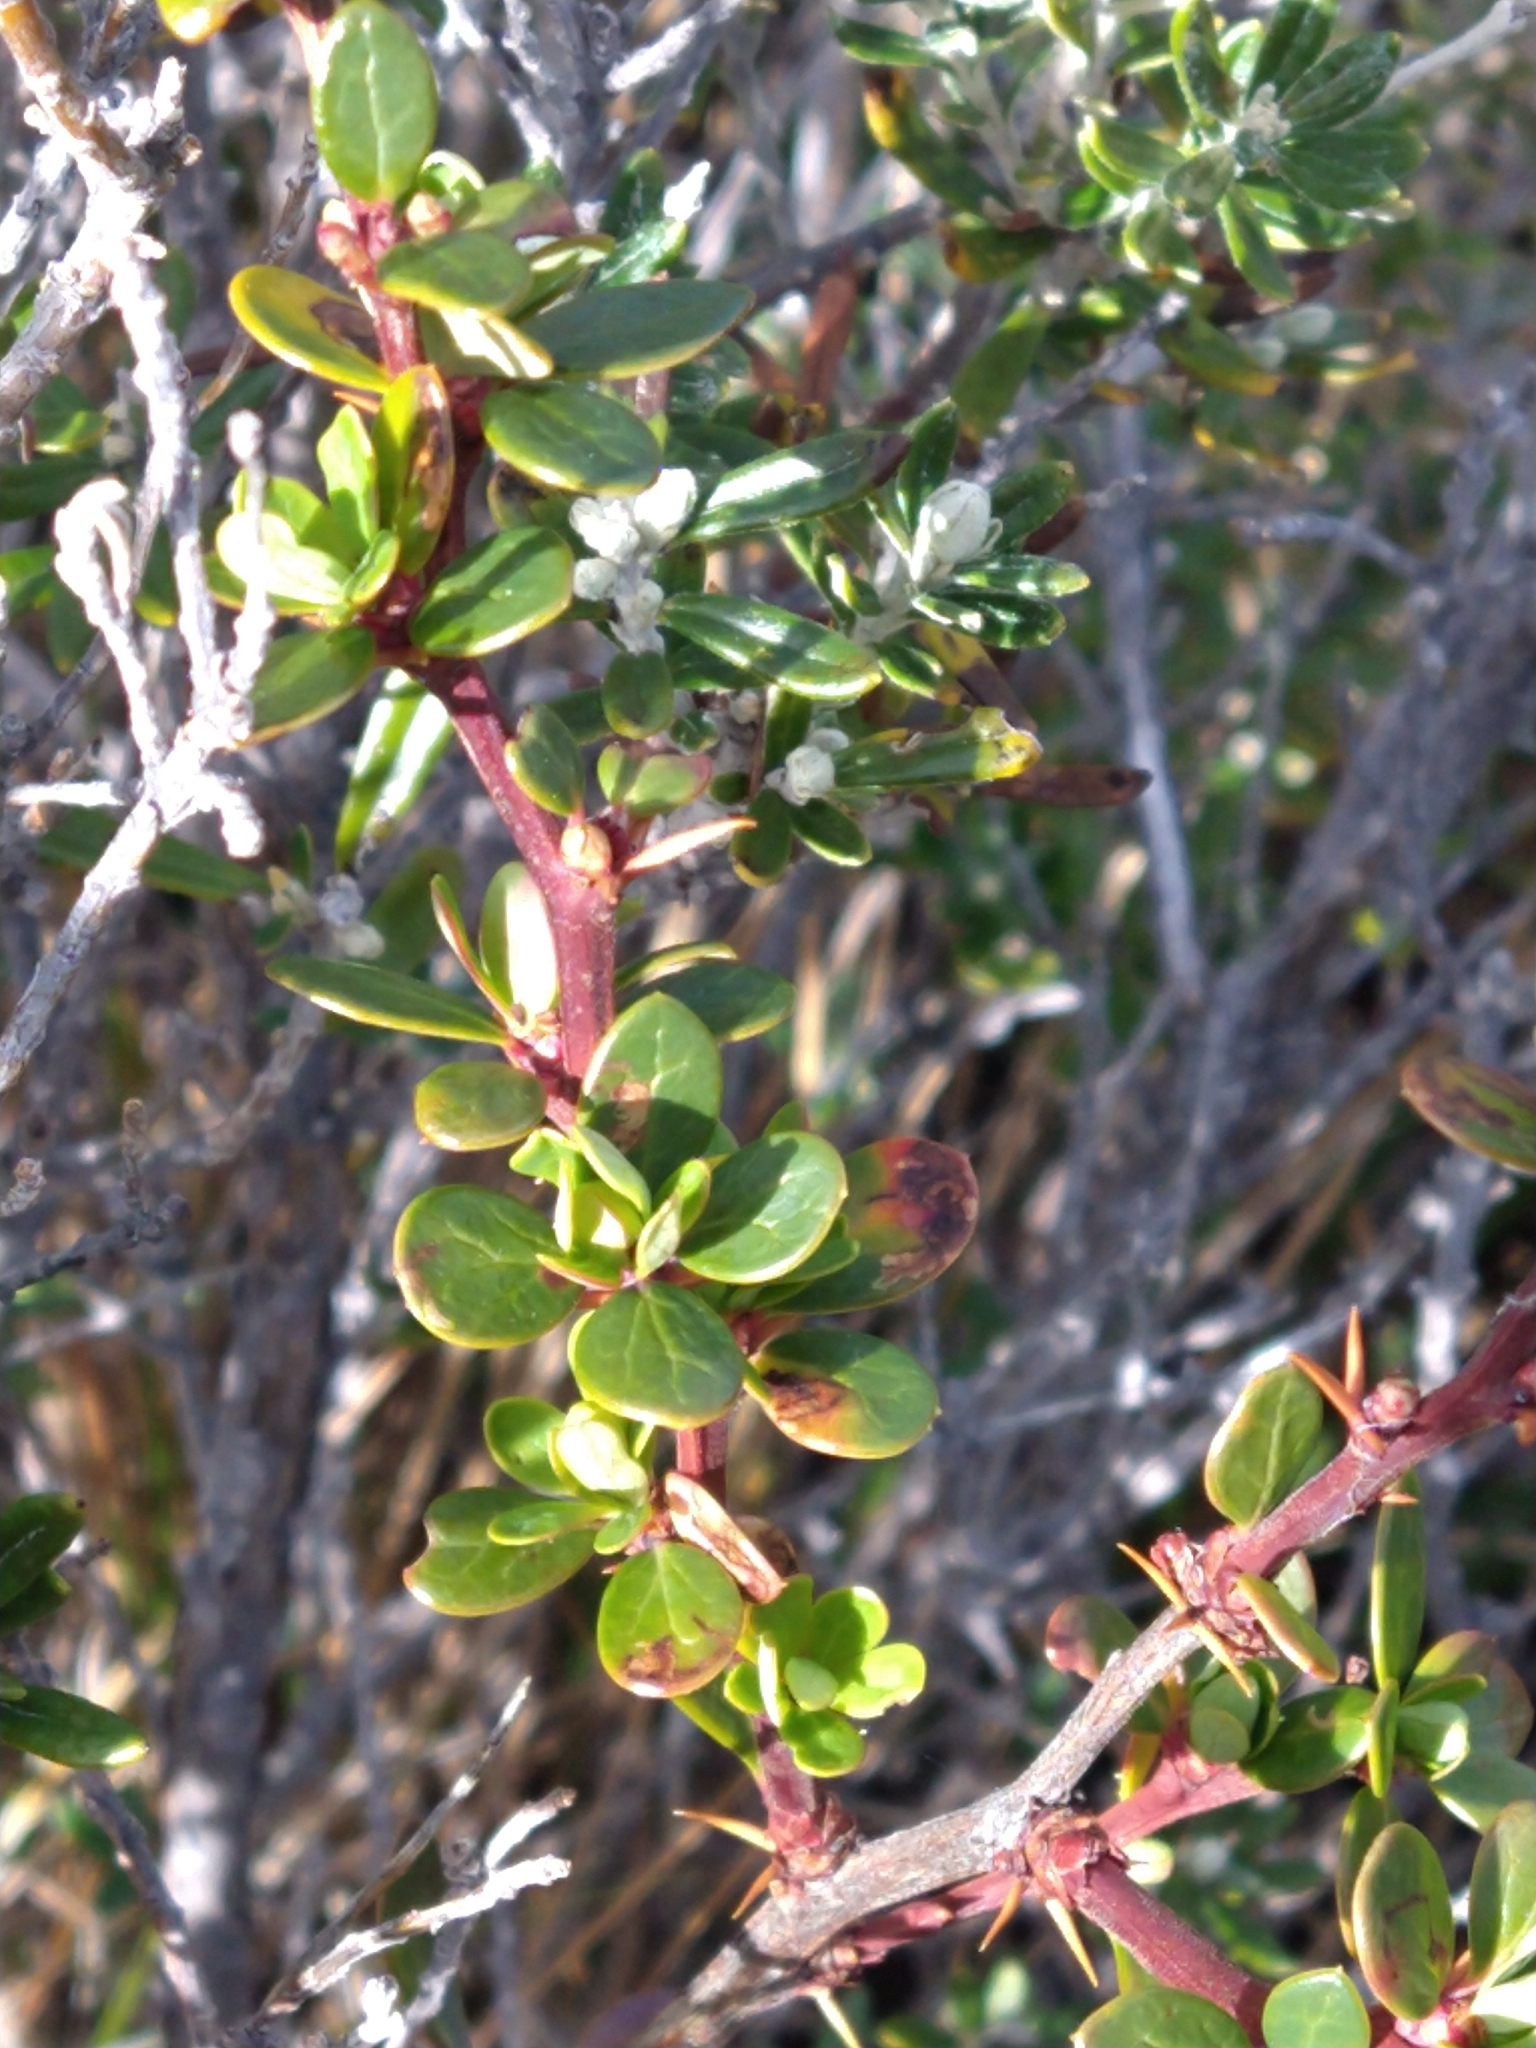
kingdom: Plantae
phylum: Tracheophyta
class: Magnoliopsida
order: Ranunculales
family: Berberidaceae
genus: Berberis
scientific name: Berberis microphylla
